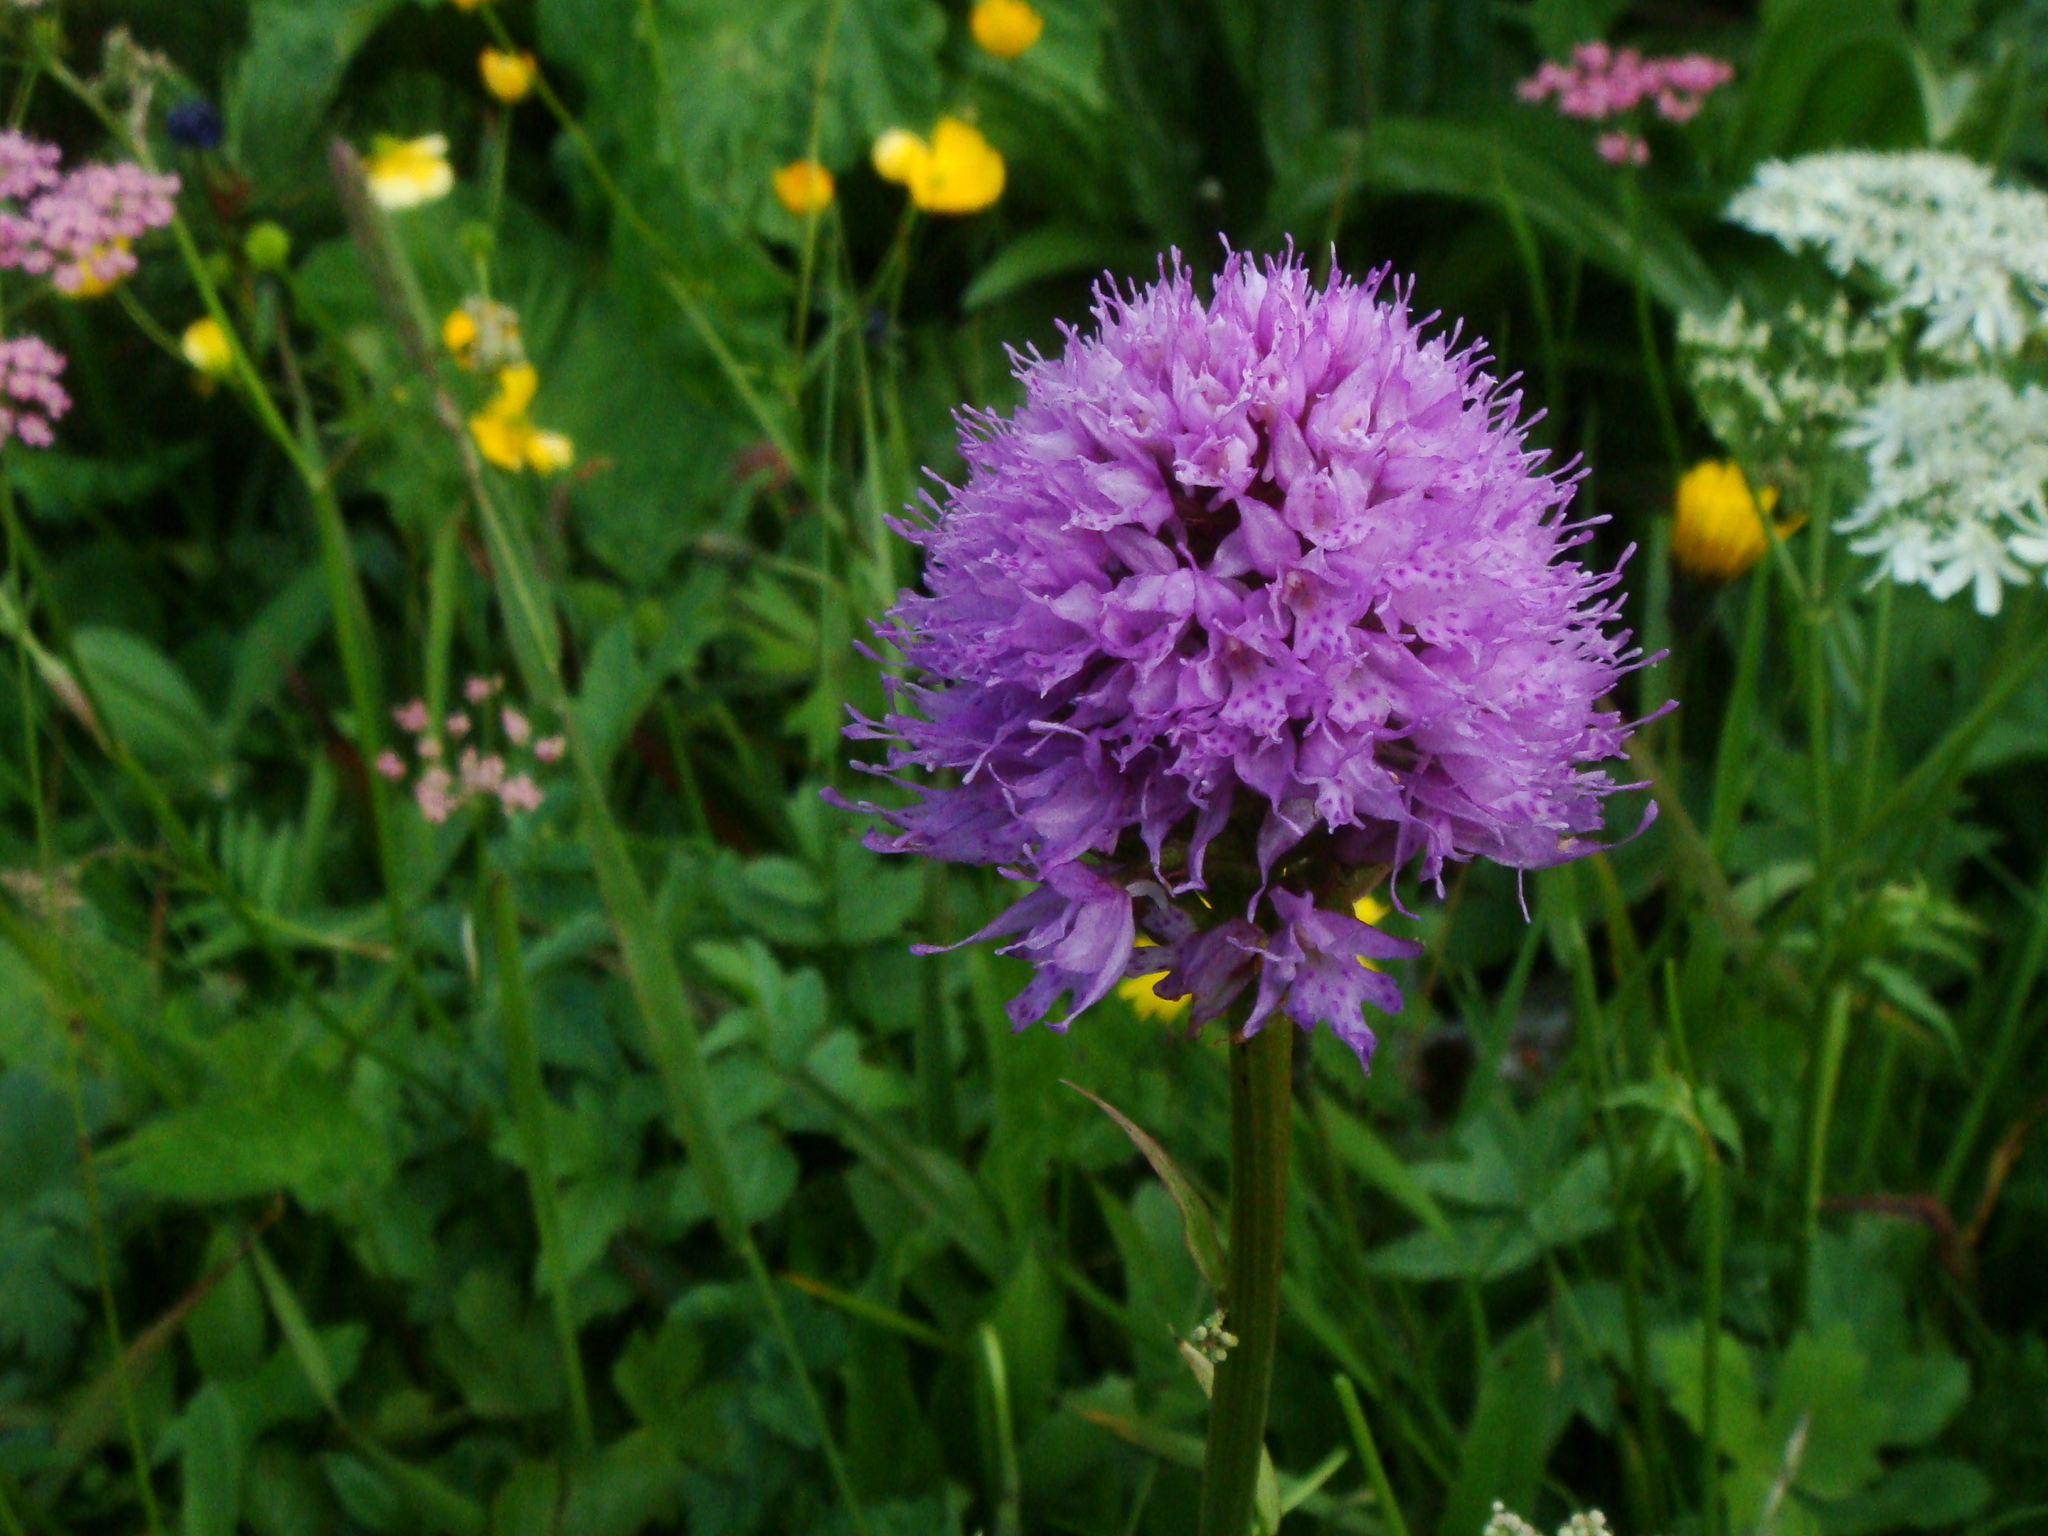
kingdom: Plantae
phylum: Tracheophyta
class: Liliopsida
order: Asparagales
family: Orchidaceae
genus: Traunsteinera
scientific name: Traunsteinera globosa
